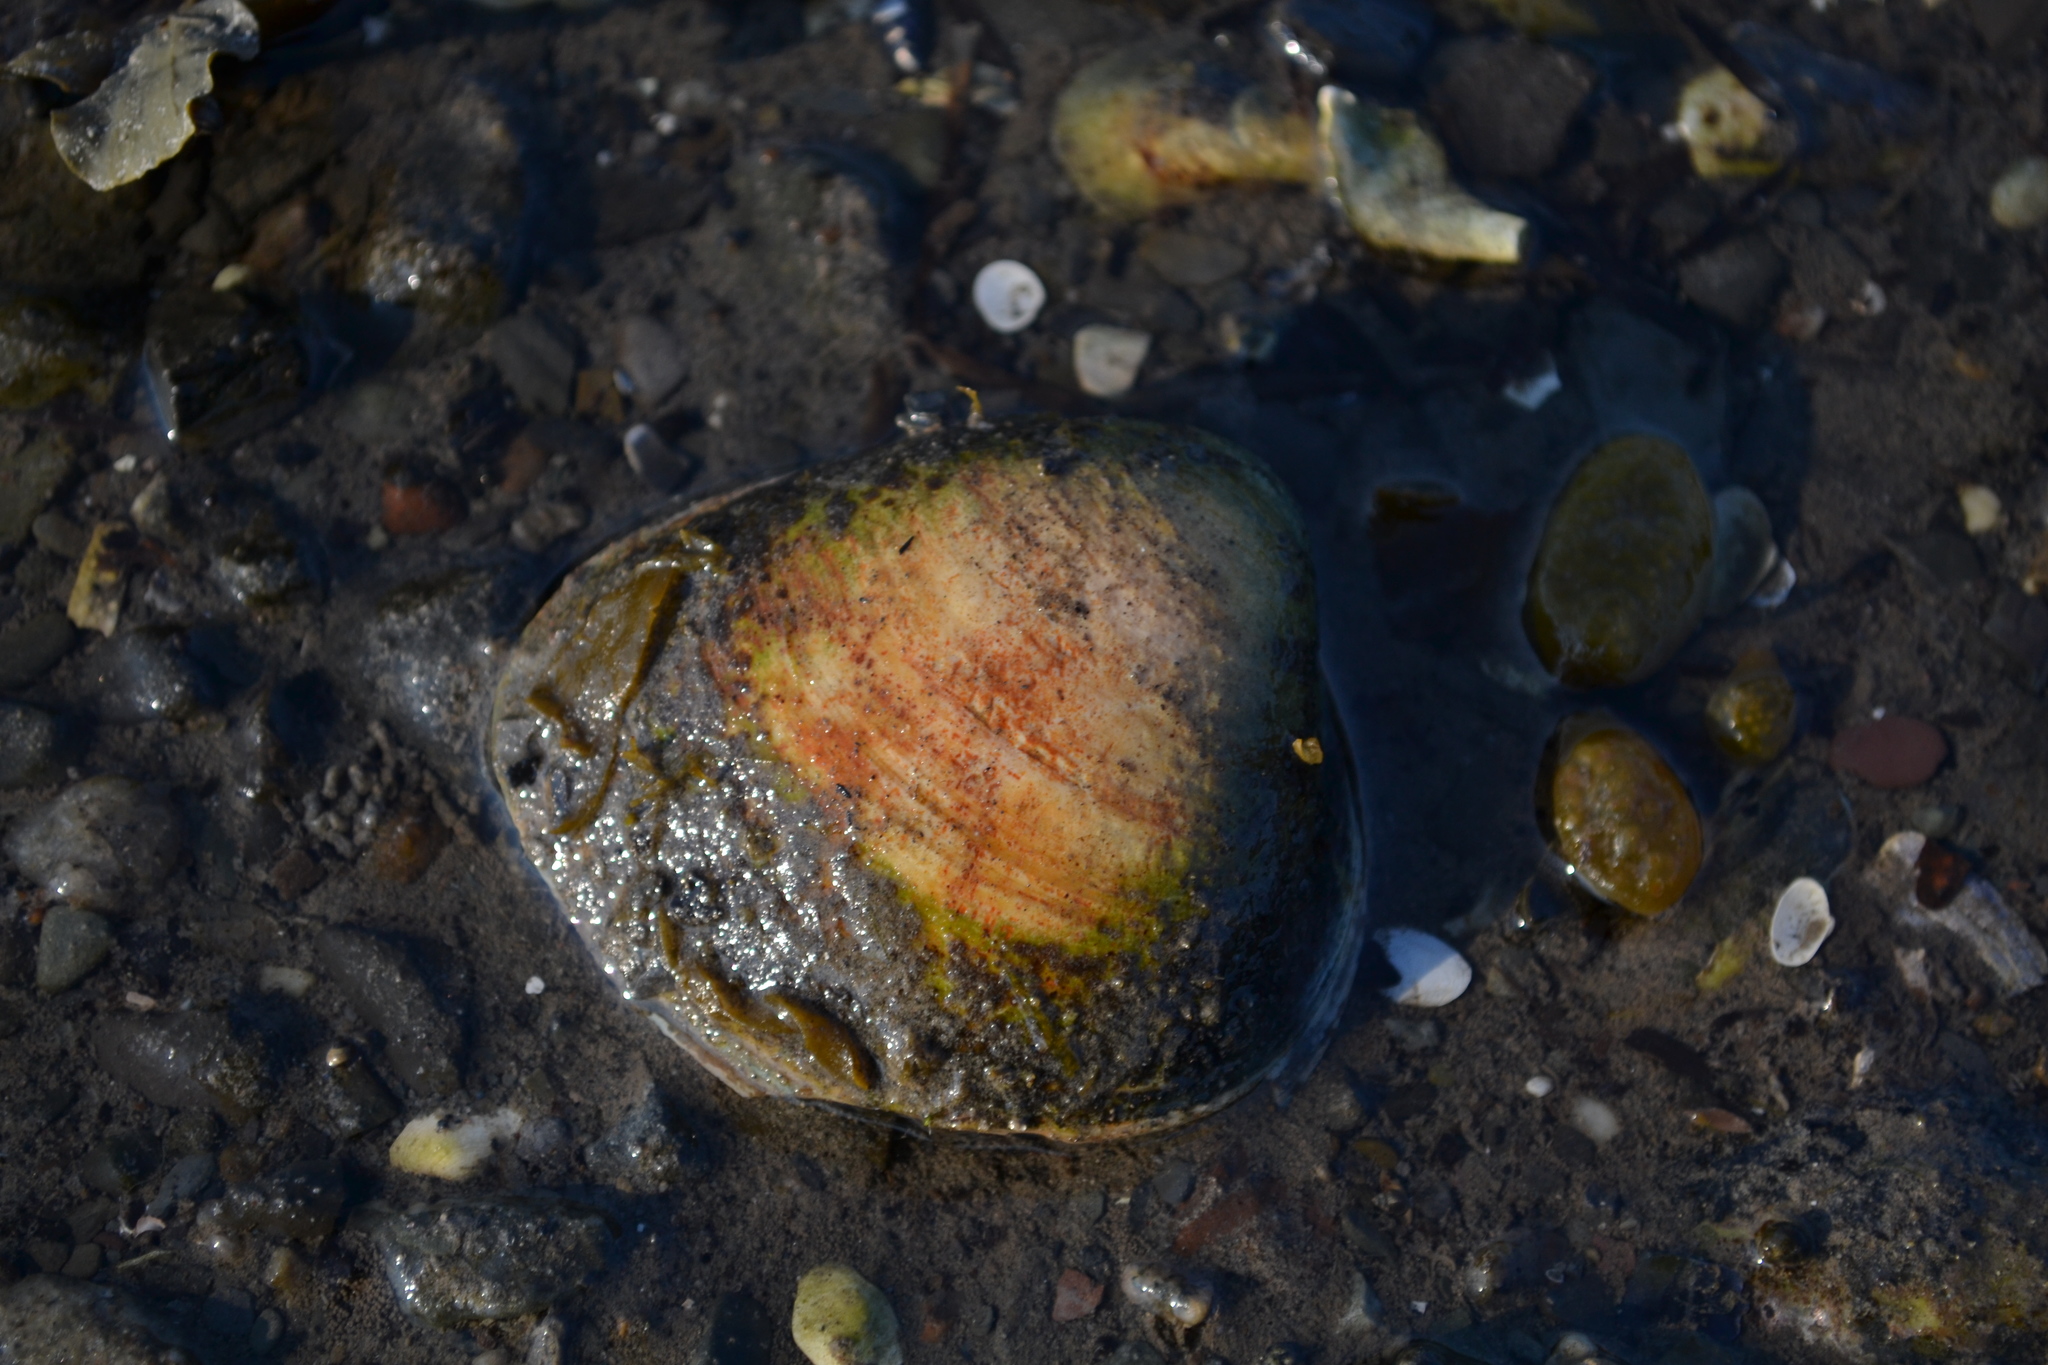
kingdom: Animalia
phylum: Mollusca
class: Bivalvia
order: Cardiida
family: Cardiidae
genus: Serripes
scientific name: Serripes groenlandicus
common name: Greenland cockle
